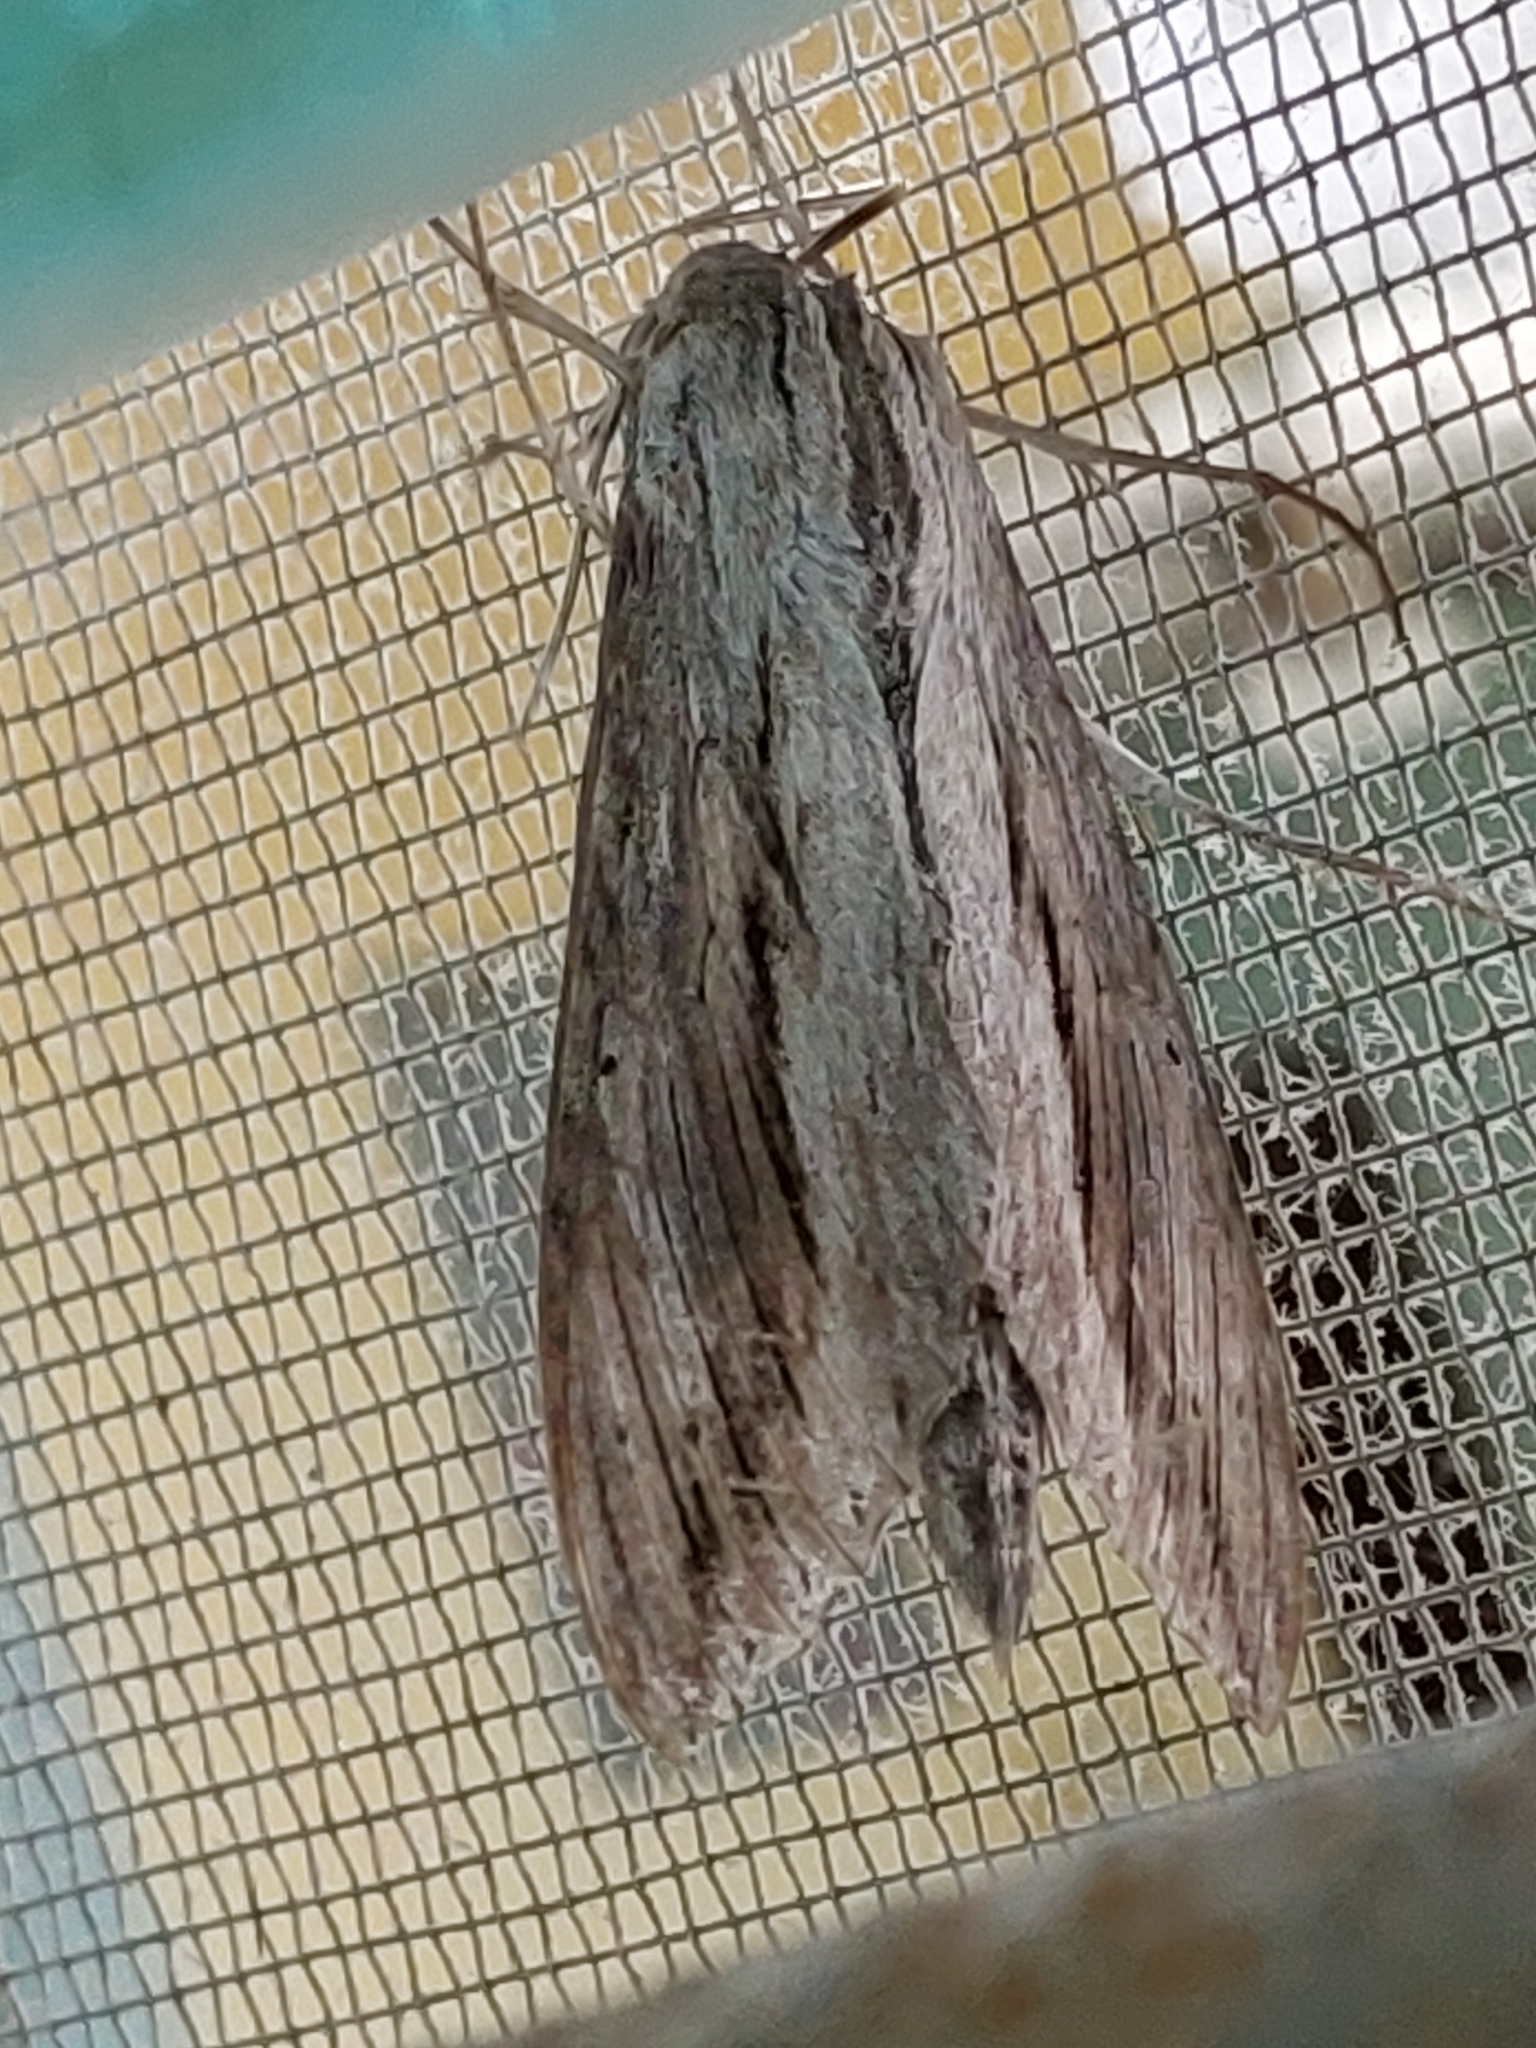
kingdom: Animalia
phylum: Arthropoda
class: Insecta
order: Lepidoptera
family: Sphingidae
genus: Erinnyis
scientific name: Erinnyis ello
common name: Ello sphinx
